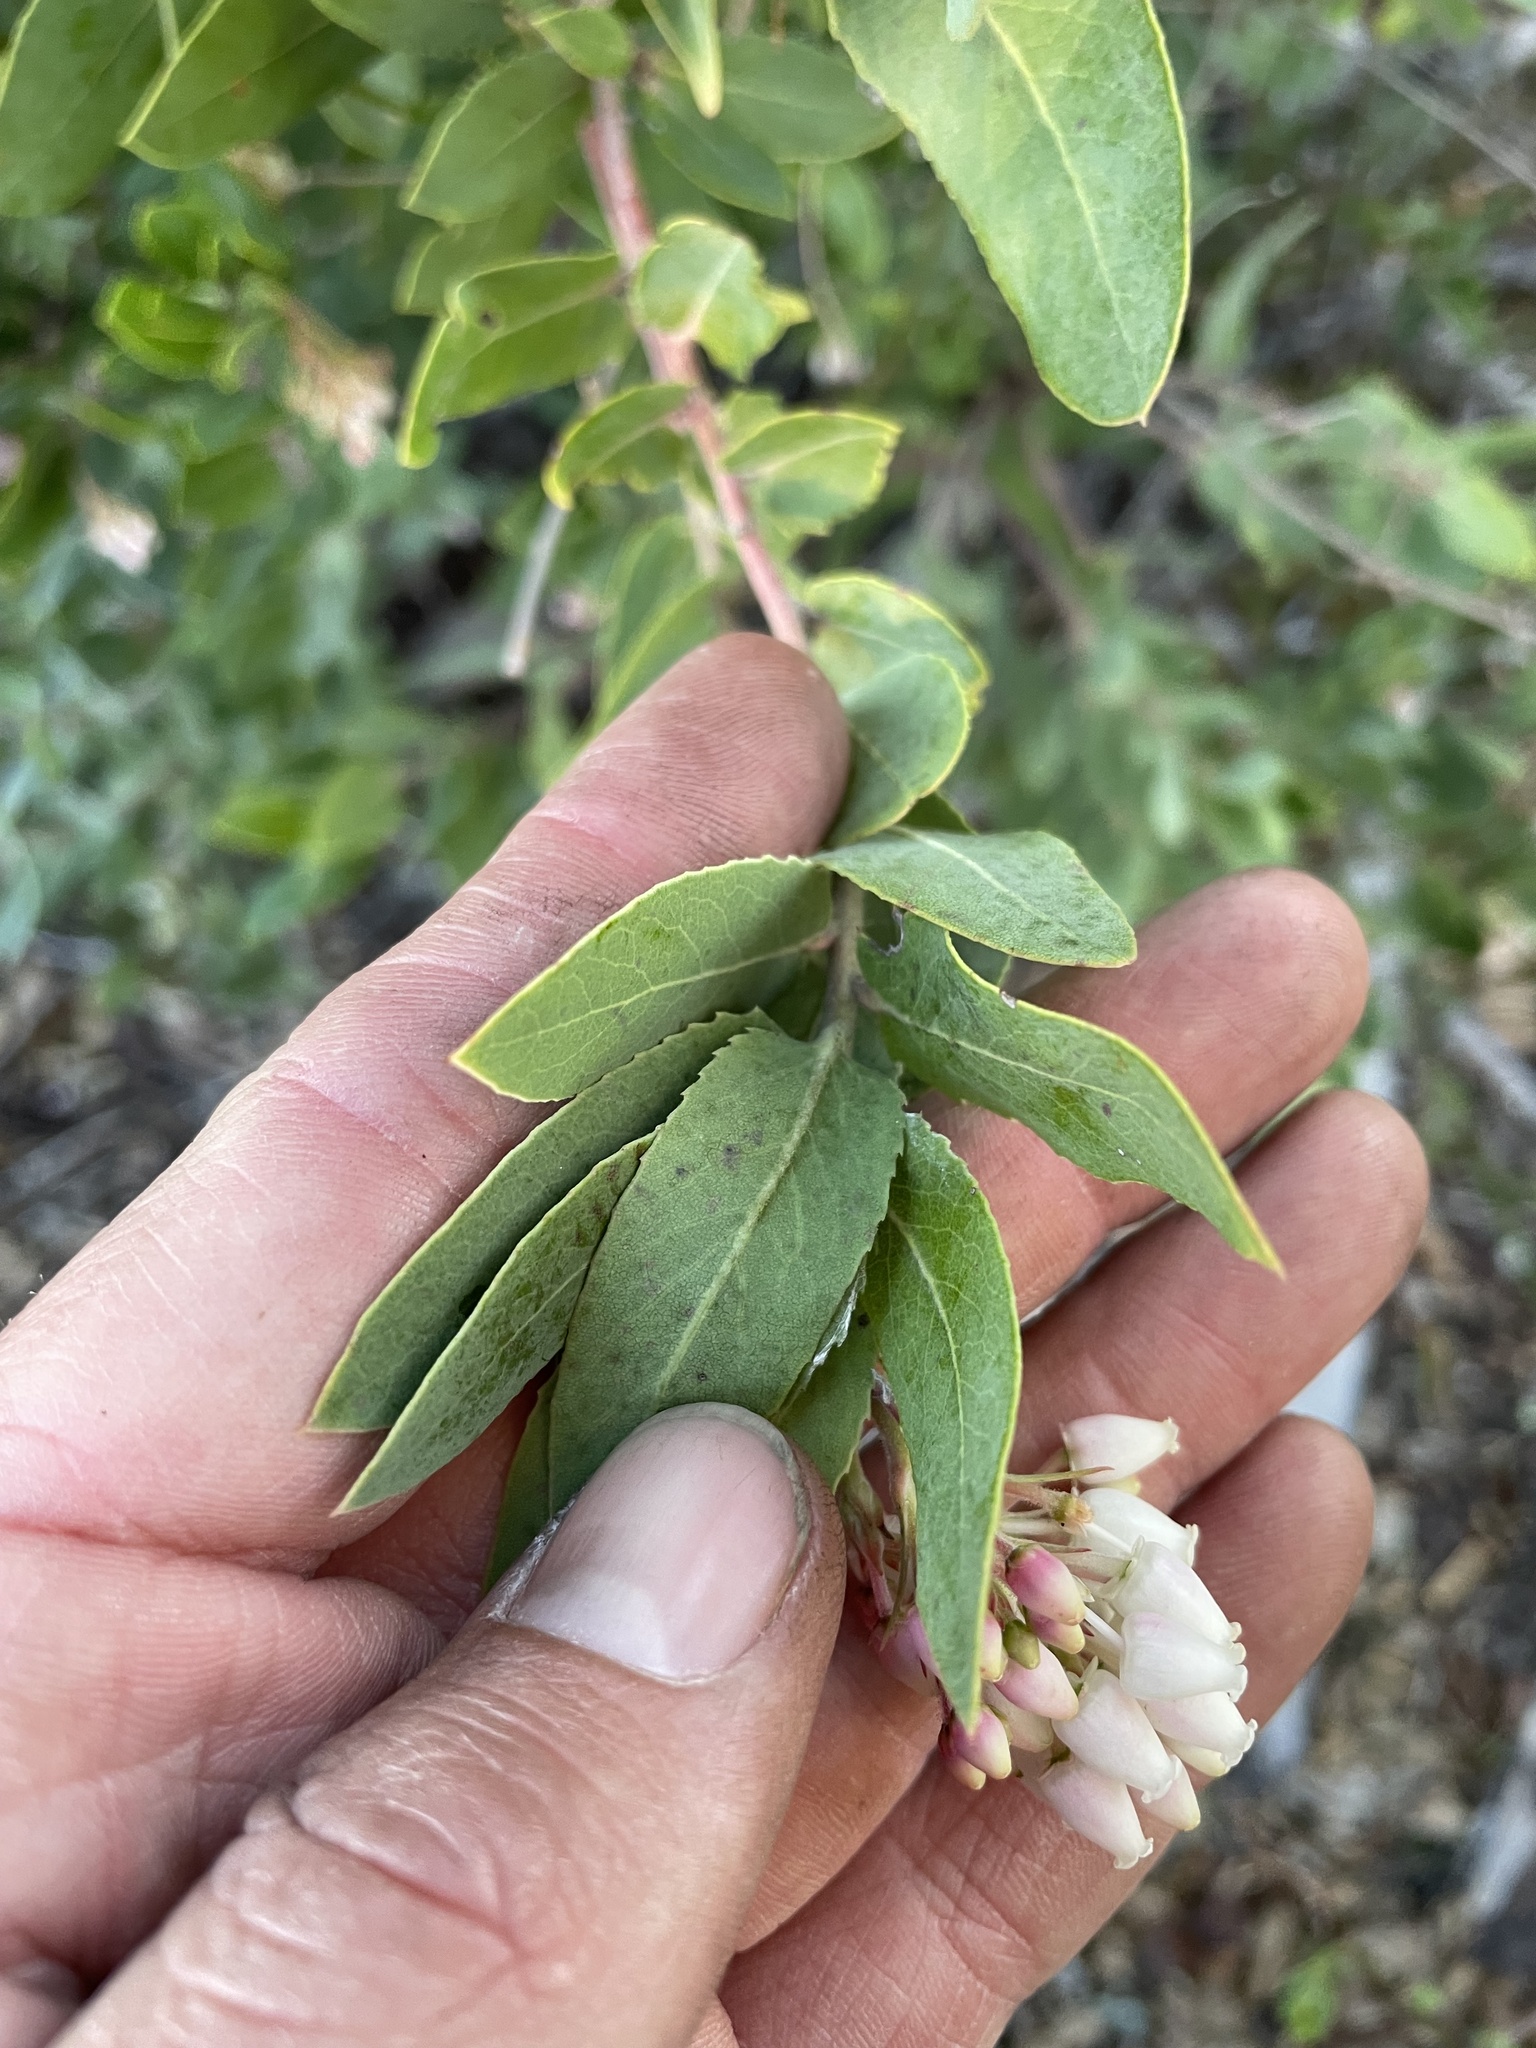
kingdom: Plantae
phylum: Tracheophyta
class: Magnoliopsida
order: Ericales
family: Ericaceae
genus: Arctostaphylos
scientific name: Arctostaphylos andersonii
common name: Santa cruz manzanita
